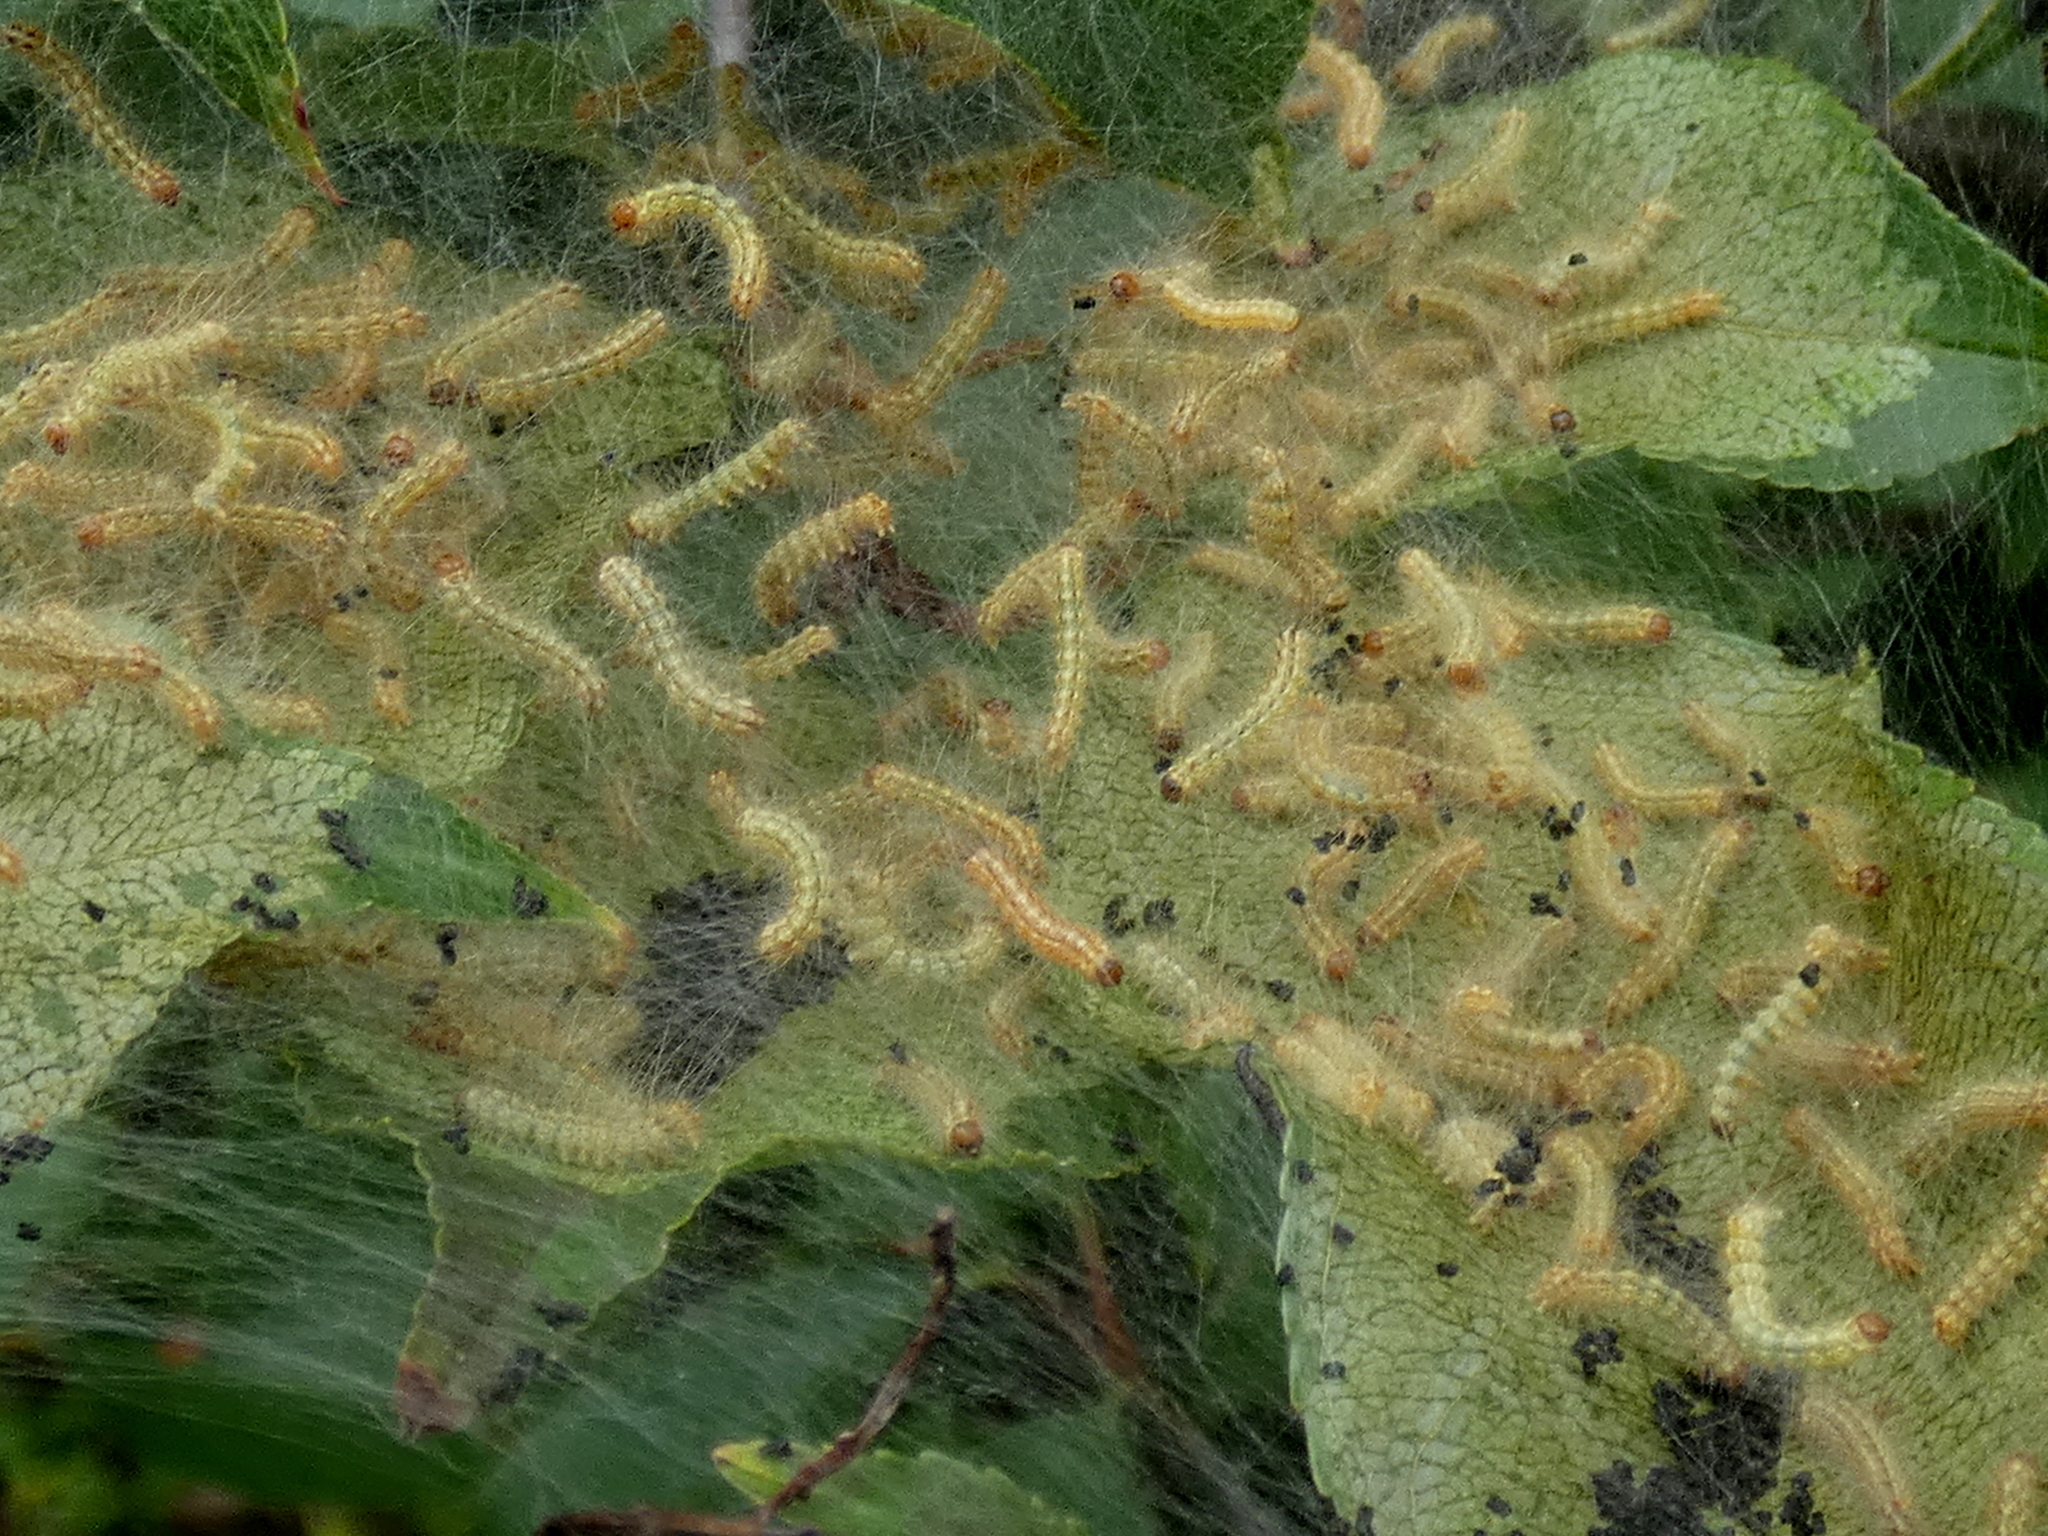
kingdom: Animalia
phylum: Arthropoda
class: Insecta
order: Lepidoptera
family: Erebidae
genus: Hyphantria
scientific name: Hyphantria cunea
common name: American white moth
